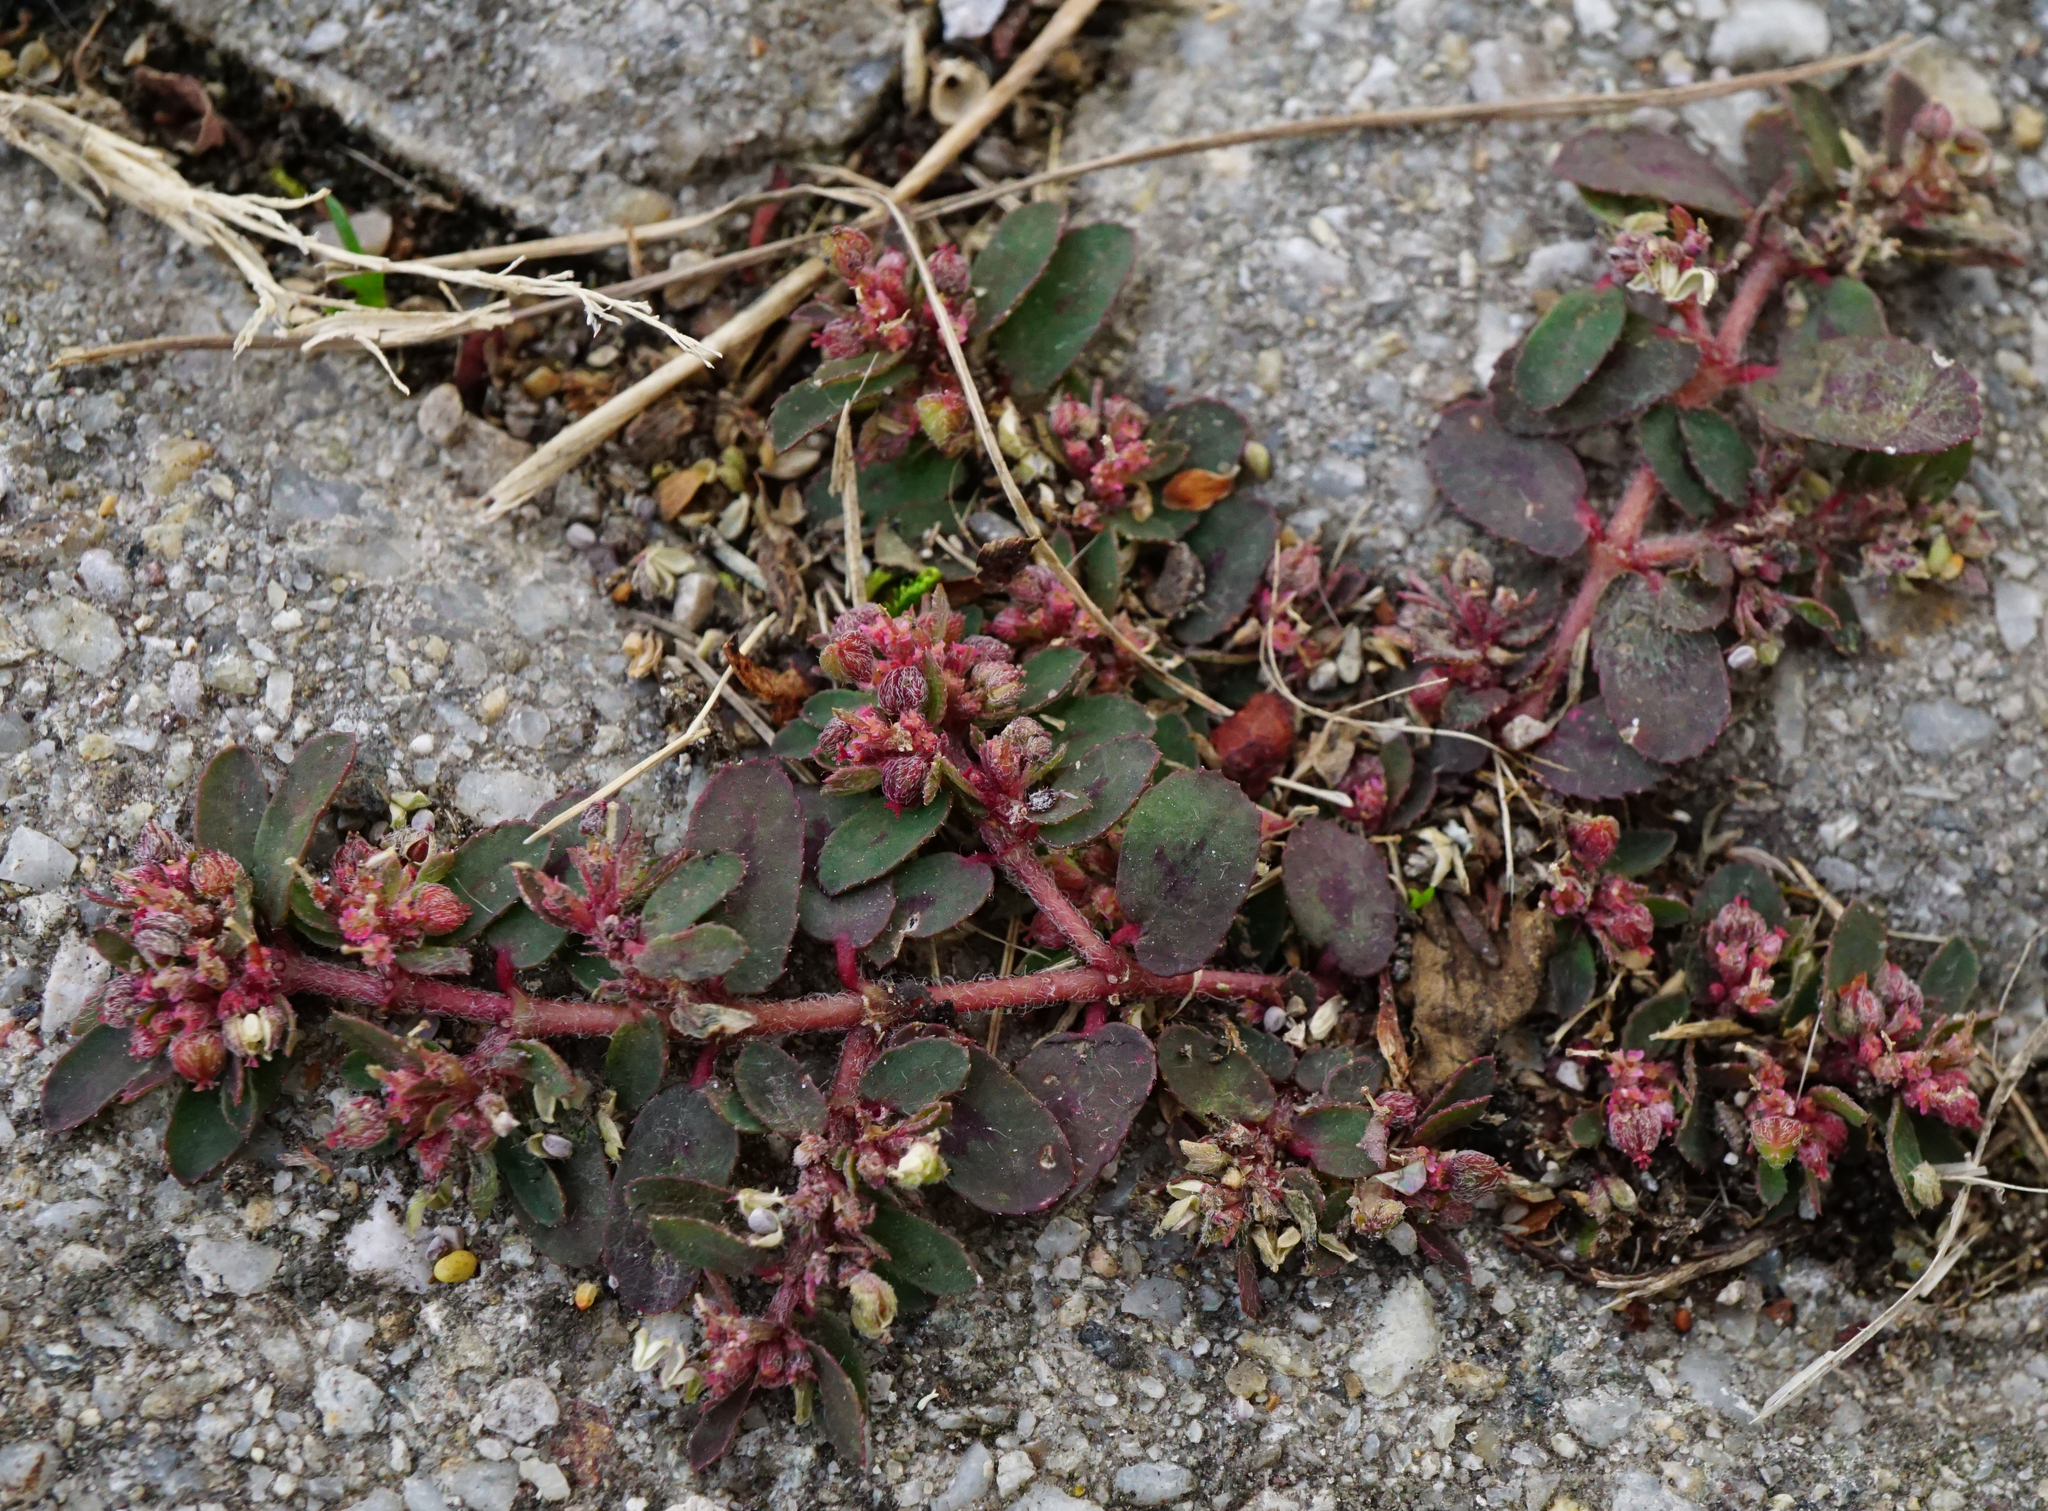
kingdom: Plantae
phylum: Tracheophyta
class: Magnoliopsida
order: Malpighiales
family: Euphorbiaceae
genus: Euphorbia
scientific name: Euphorbia maculata
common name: Spotted spurge
